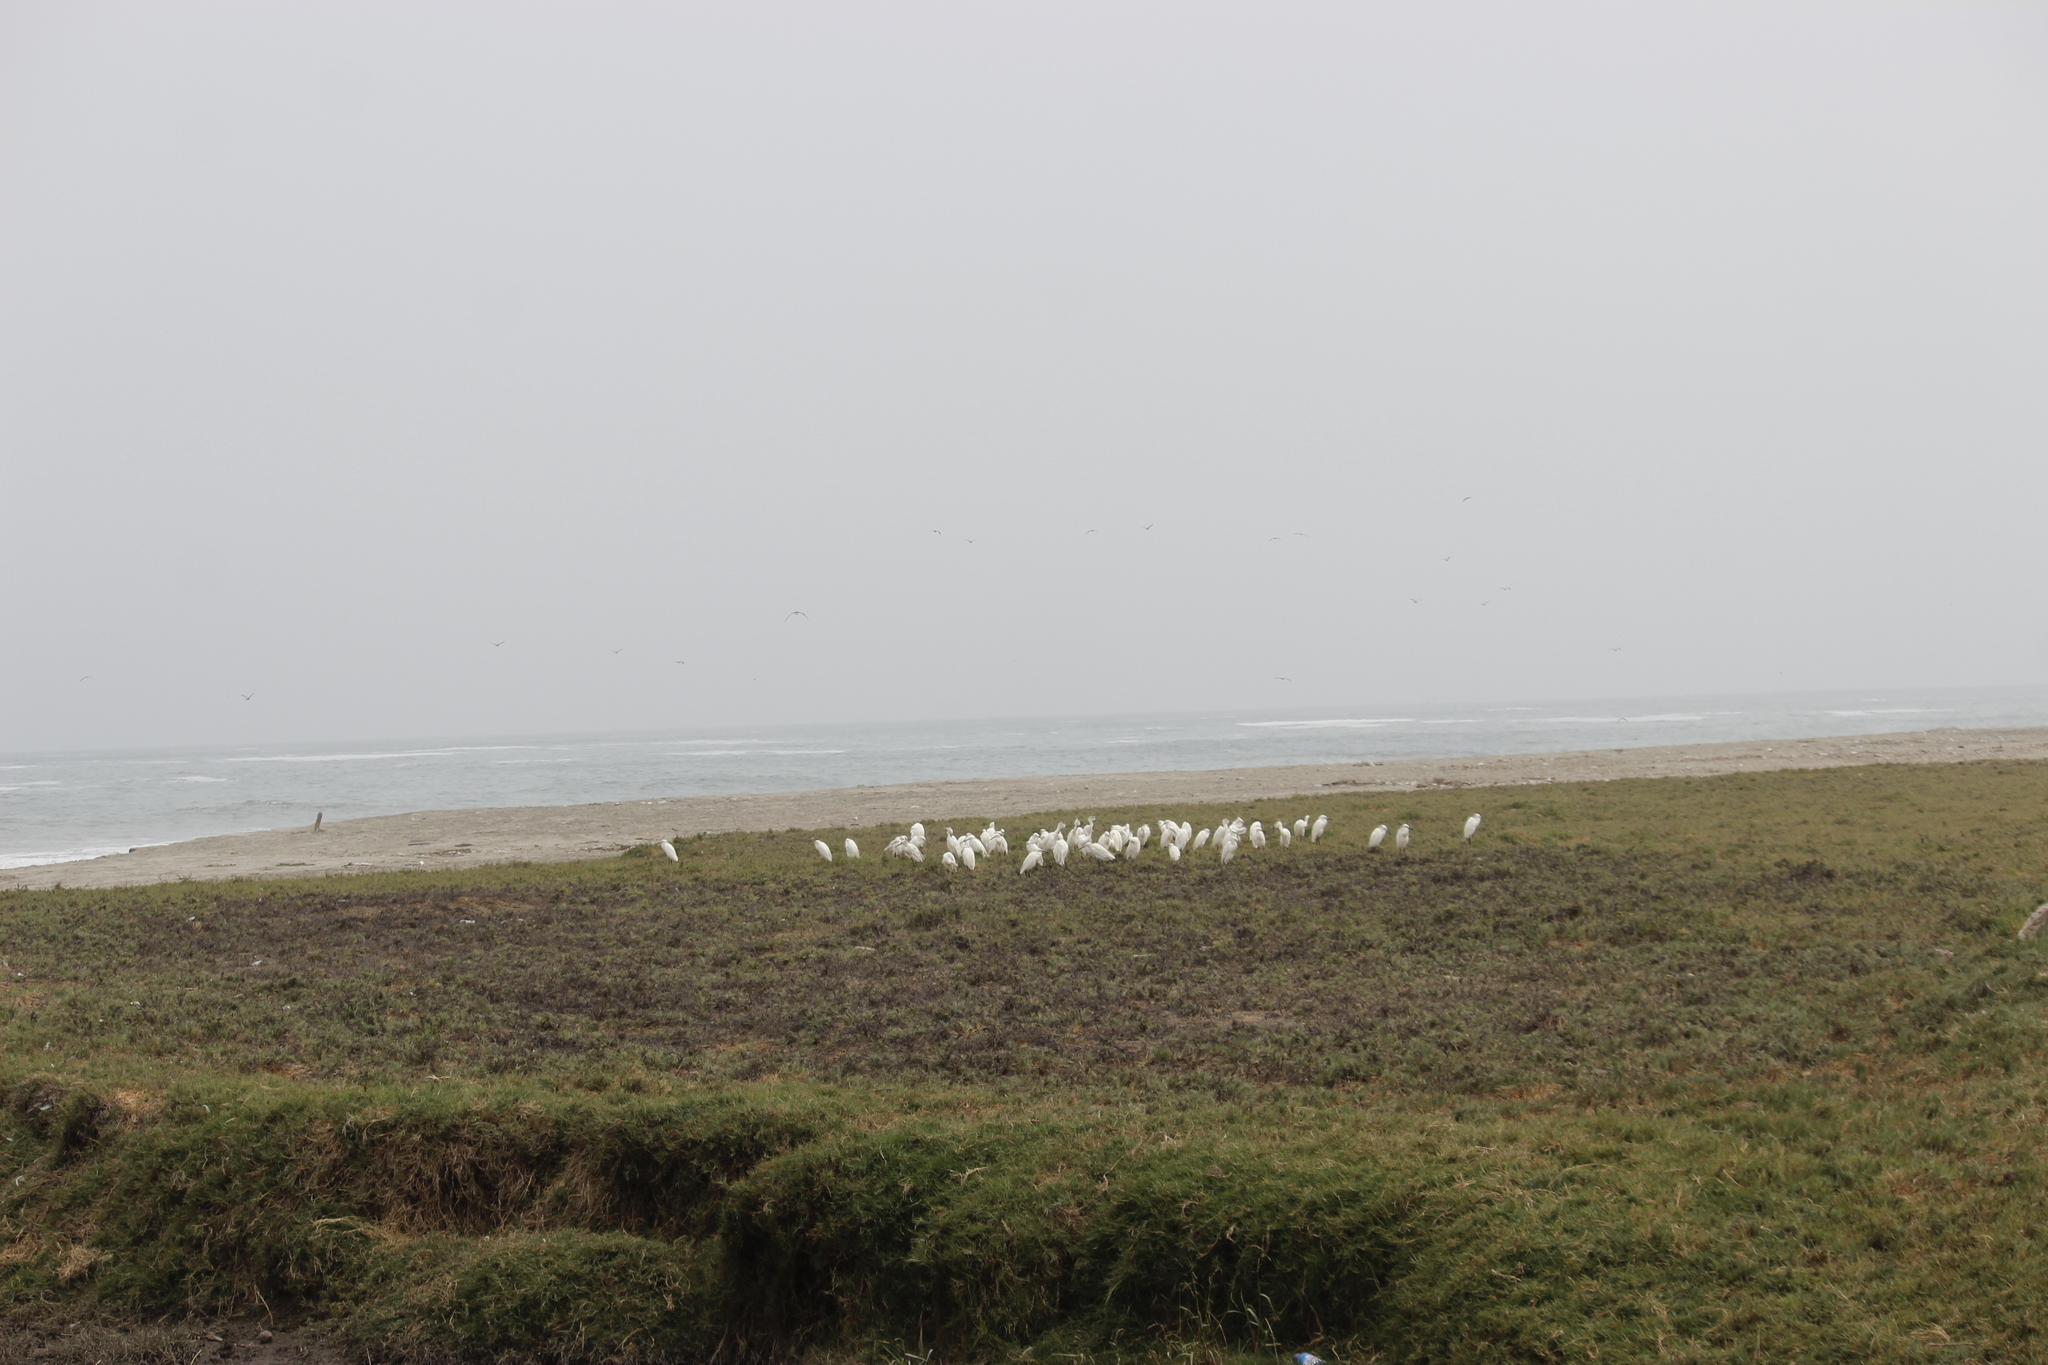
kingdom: Animalia
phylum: Chordata
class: Aves
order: Pelecaniformes
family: Ardeidae
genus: Egretta
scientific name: Egretta thula
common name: Snowy egret
